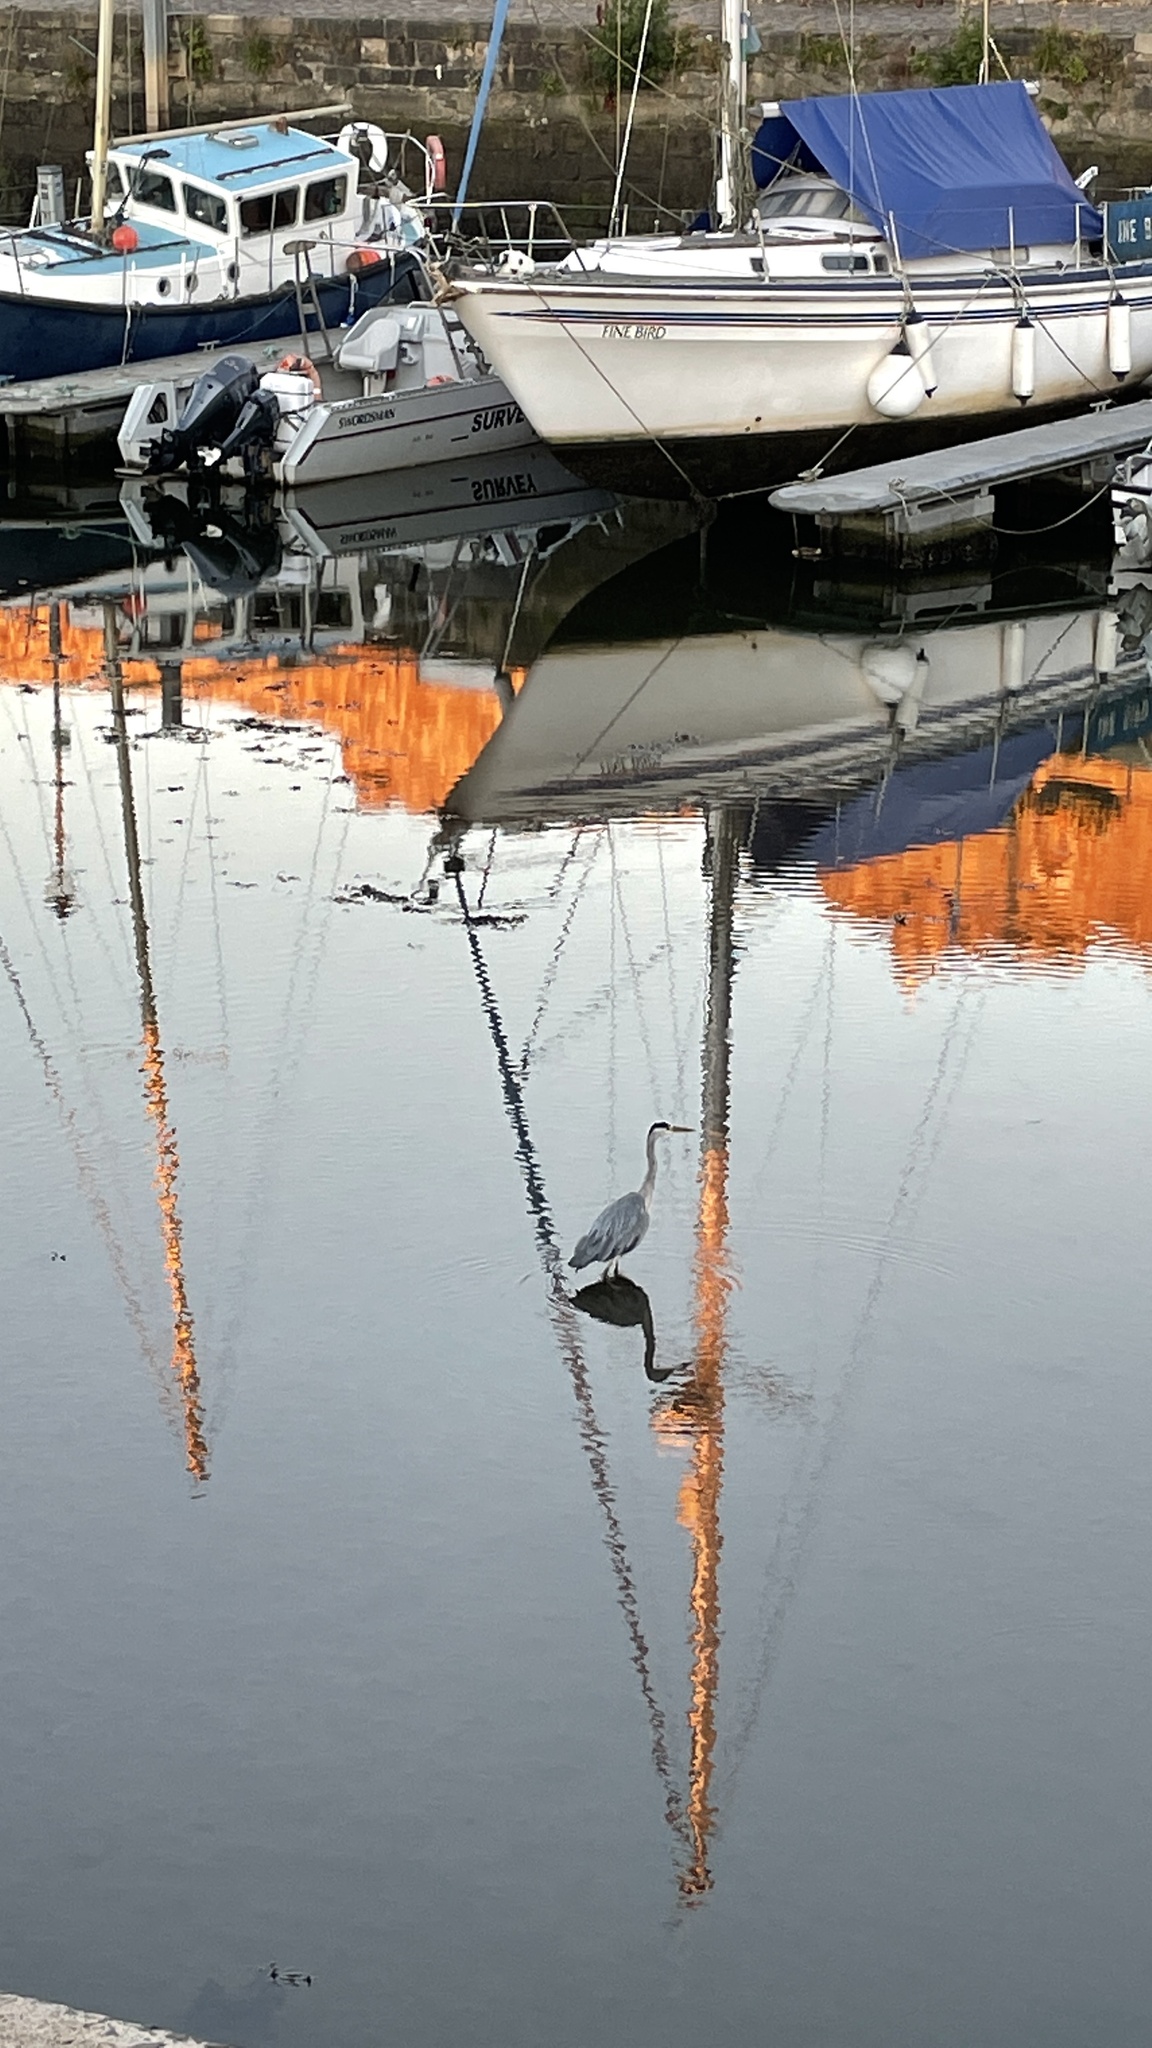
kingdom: Animalia
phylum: Chordata
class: Aves
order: Pelecaniformes
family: Ardeidae
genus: Ardea
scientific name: Ardea cinerea
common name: Grey heron
